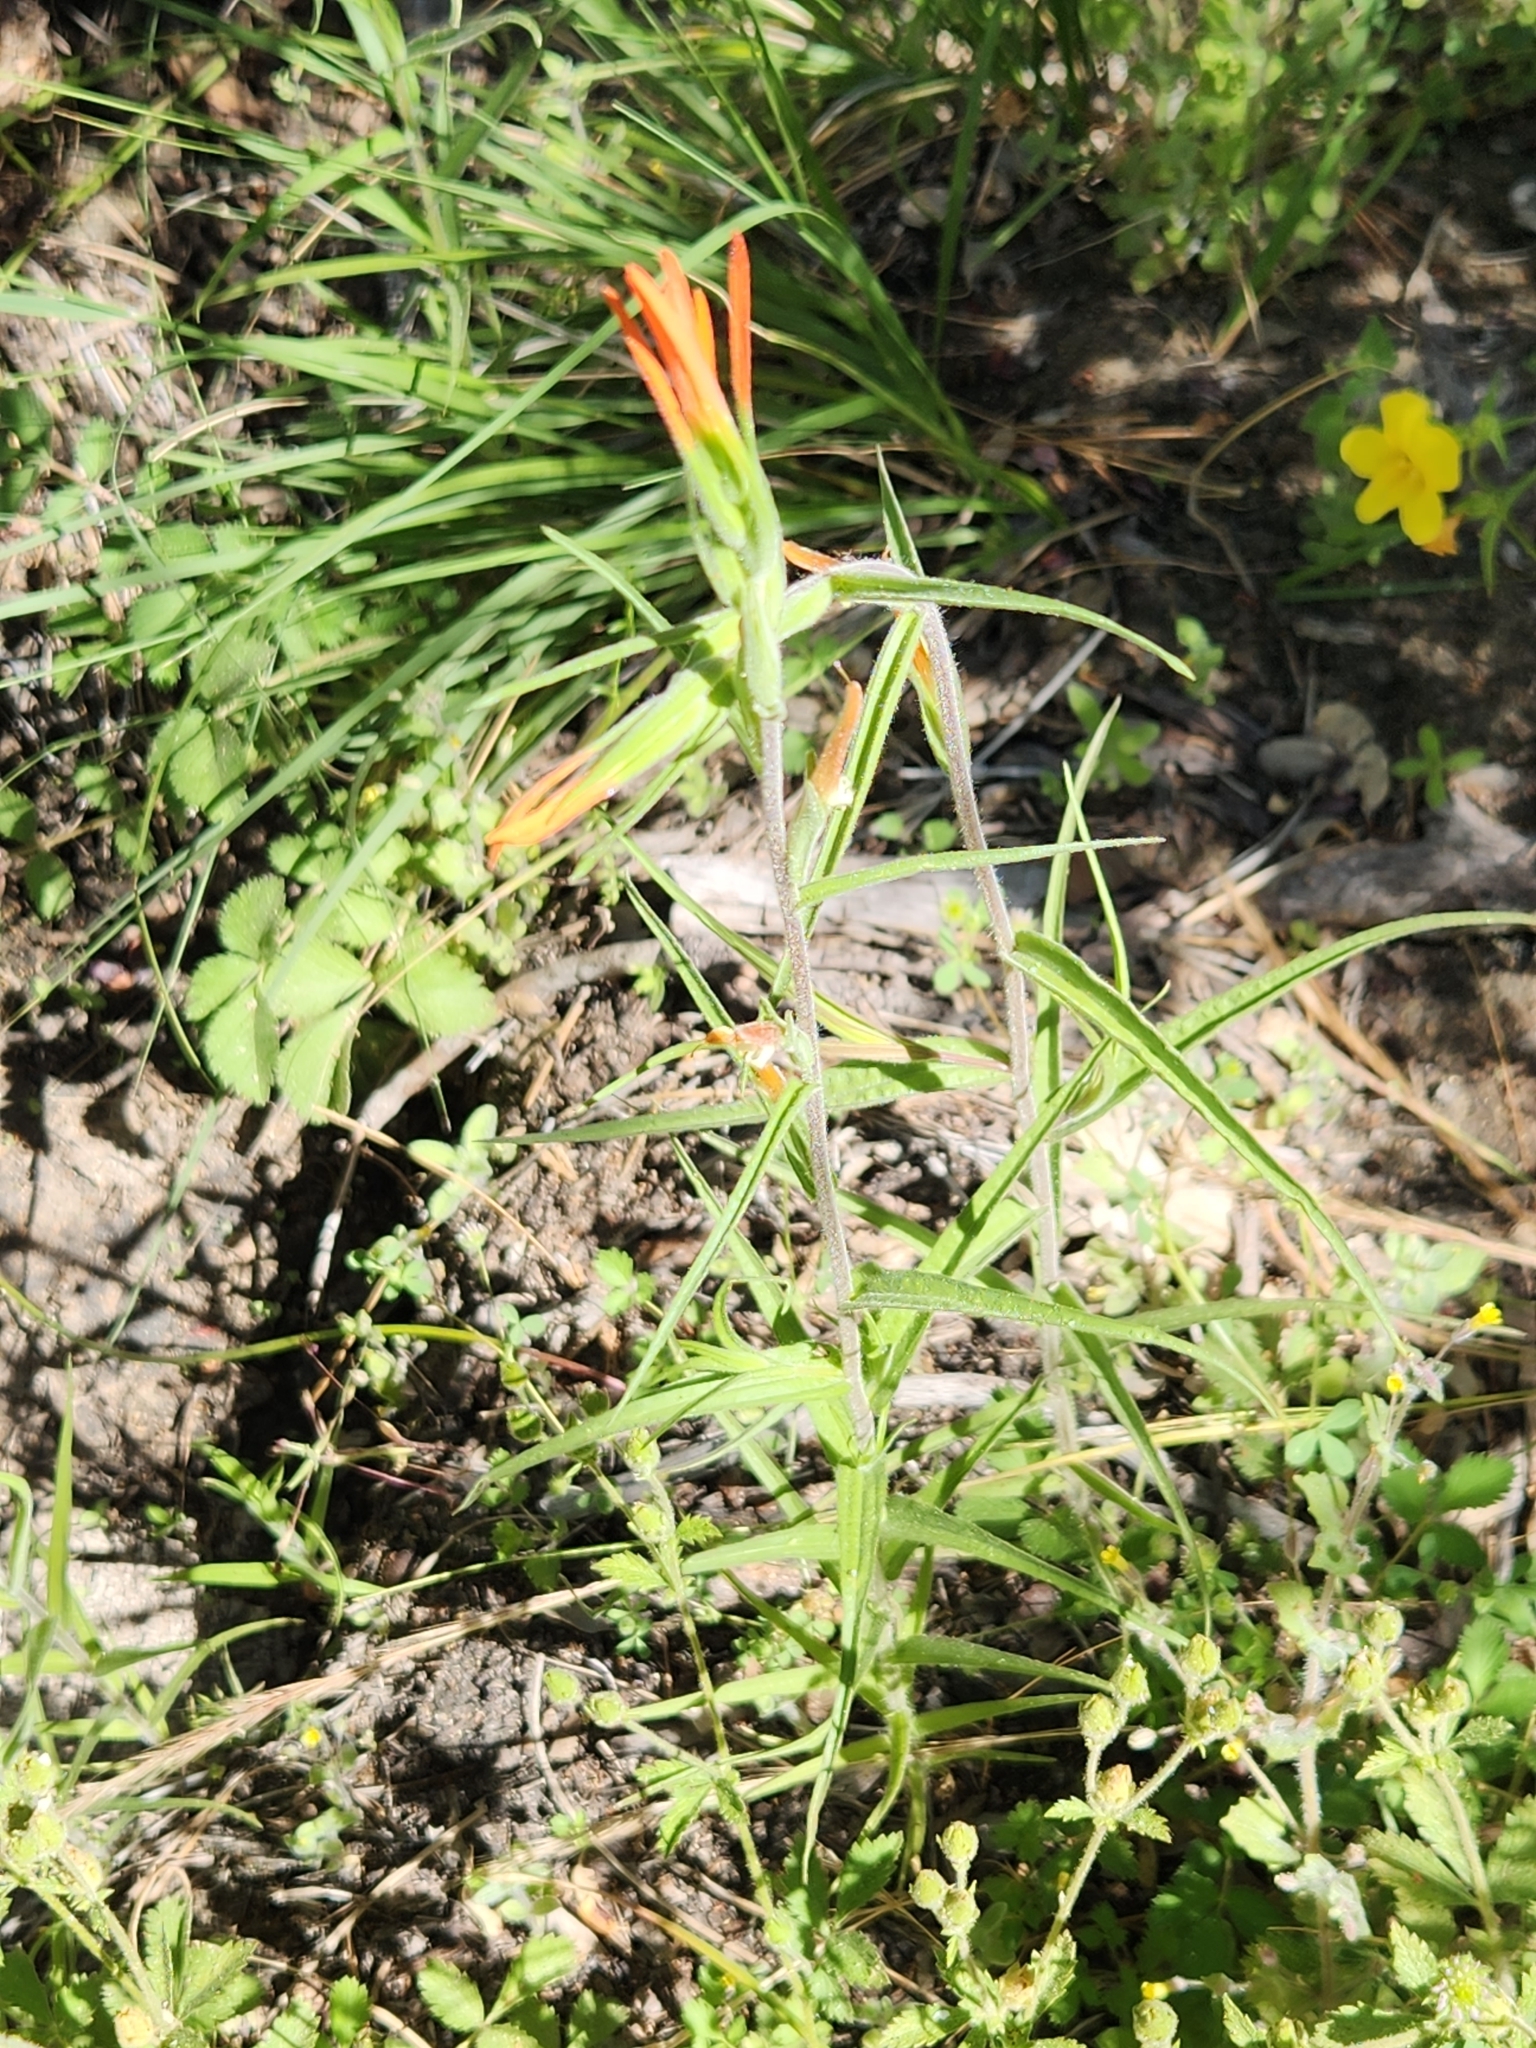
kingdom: Plantae
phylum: Tracheophyta
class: Magnoliopsida
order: Lamiales
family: Orobanchaceae
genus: Castilleja
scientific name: Castilleja minor
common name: Seep paintbrush
